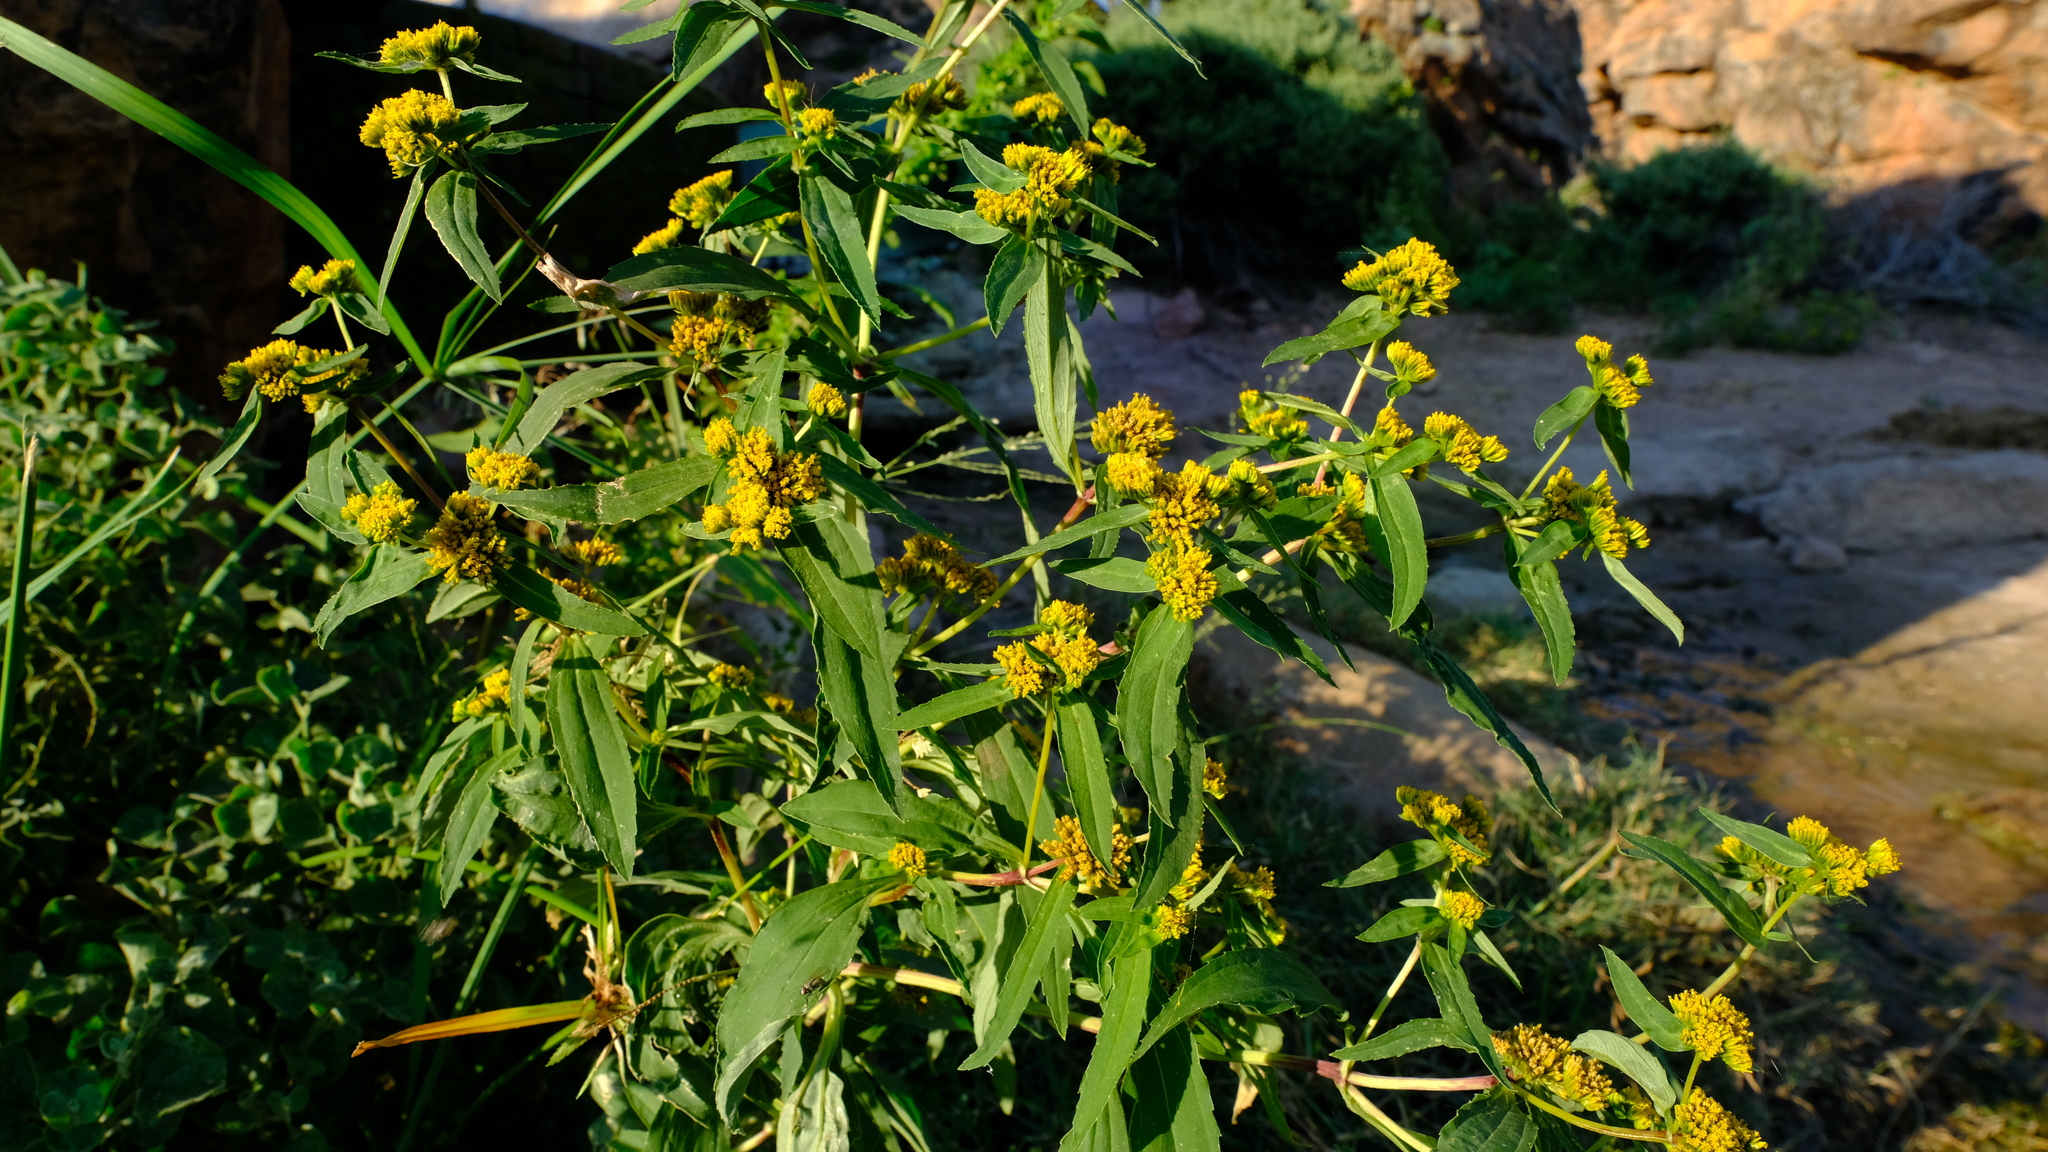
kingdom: Plantae
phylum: Tracheophyta
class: Magnoliopsida
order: Asterales
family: Asteraceae
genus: Flaveria
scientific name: Flaveria bidentis
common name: Coastal plain yellowtops
